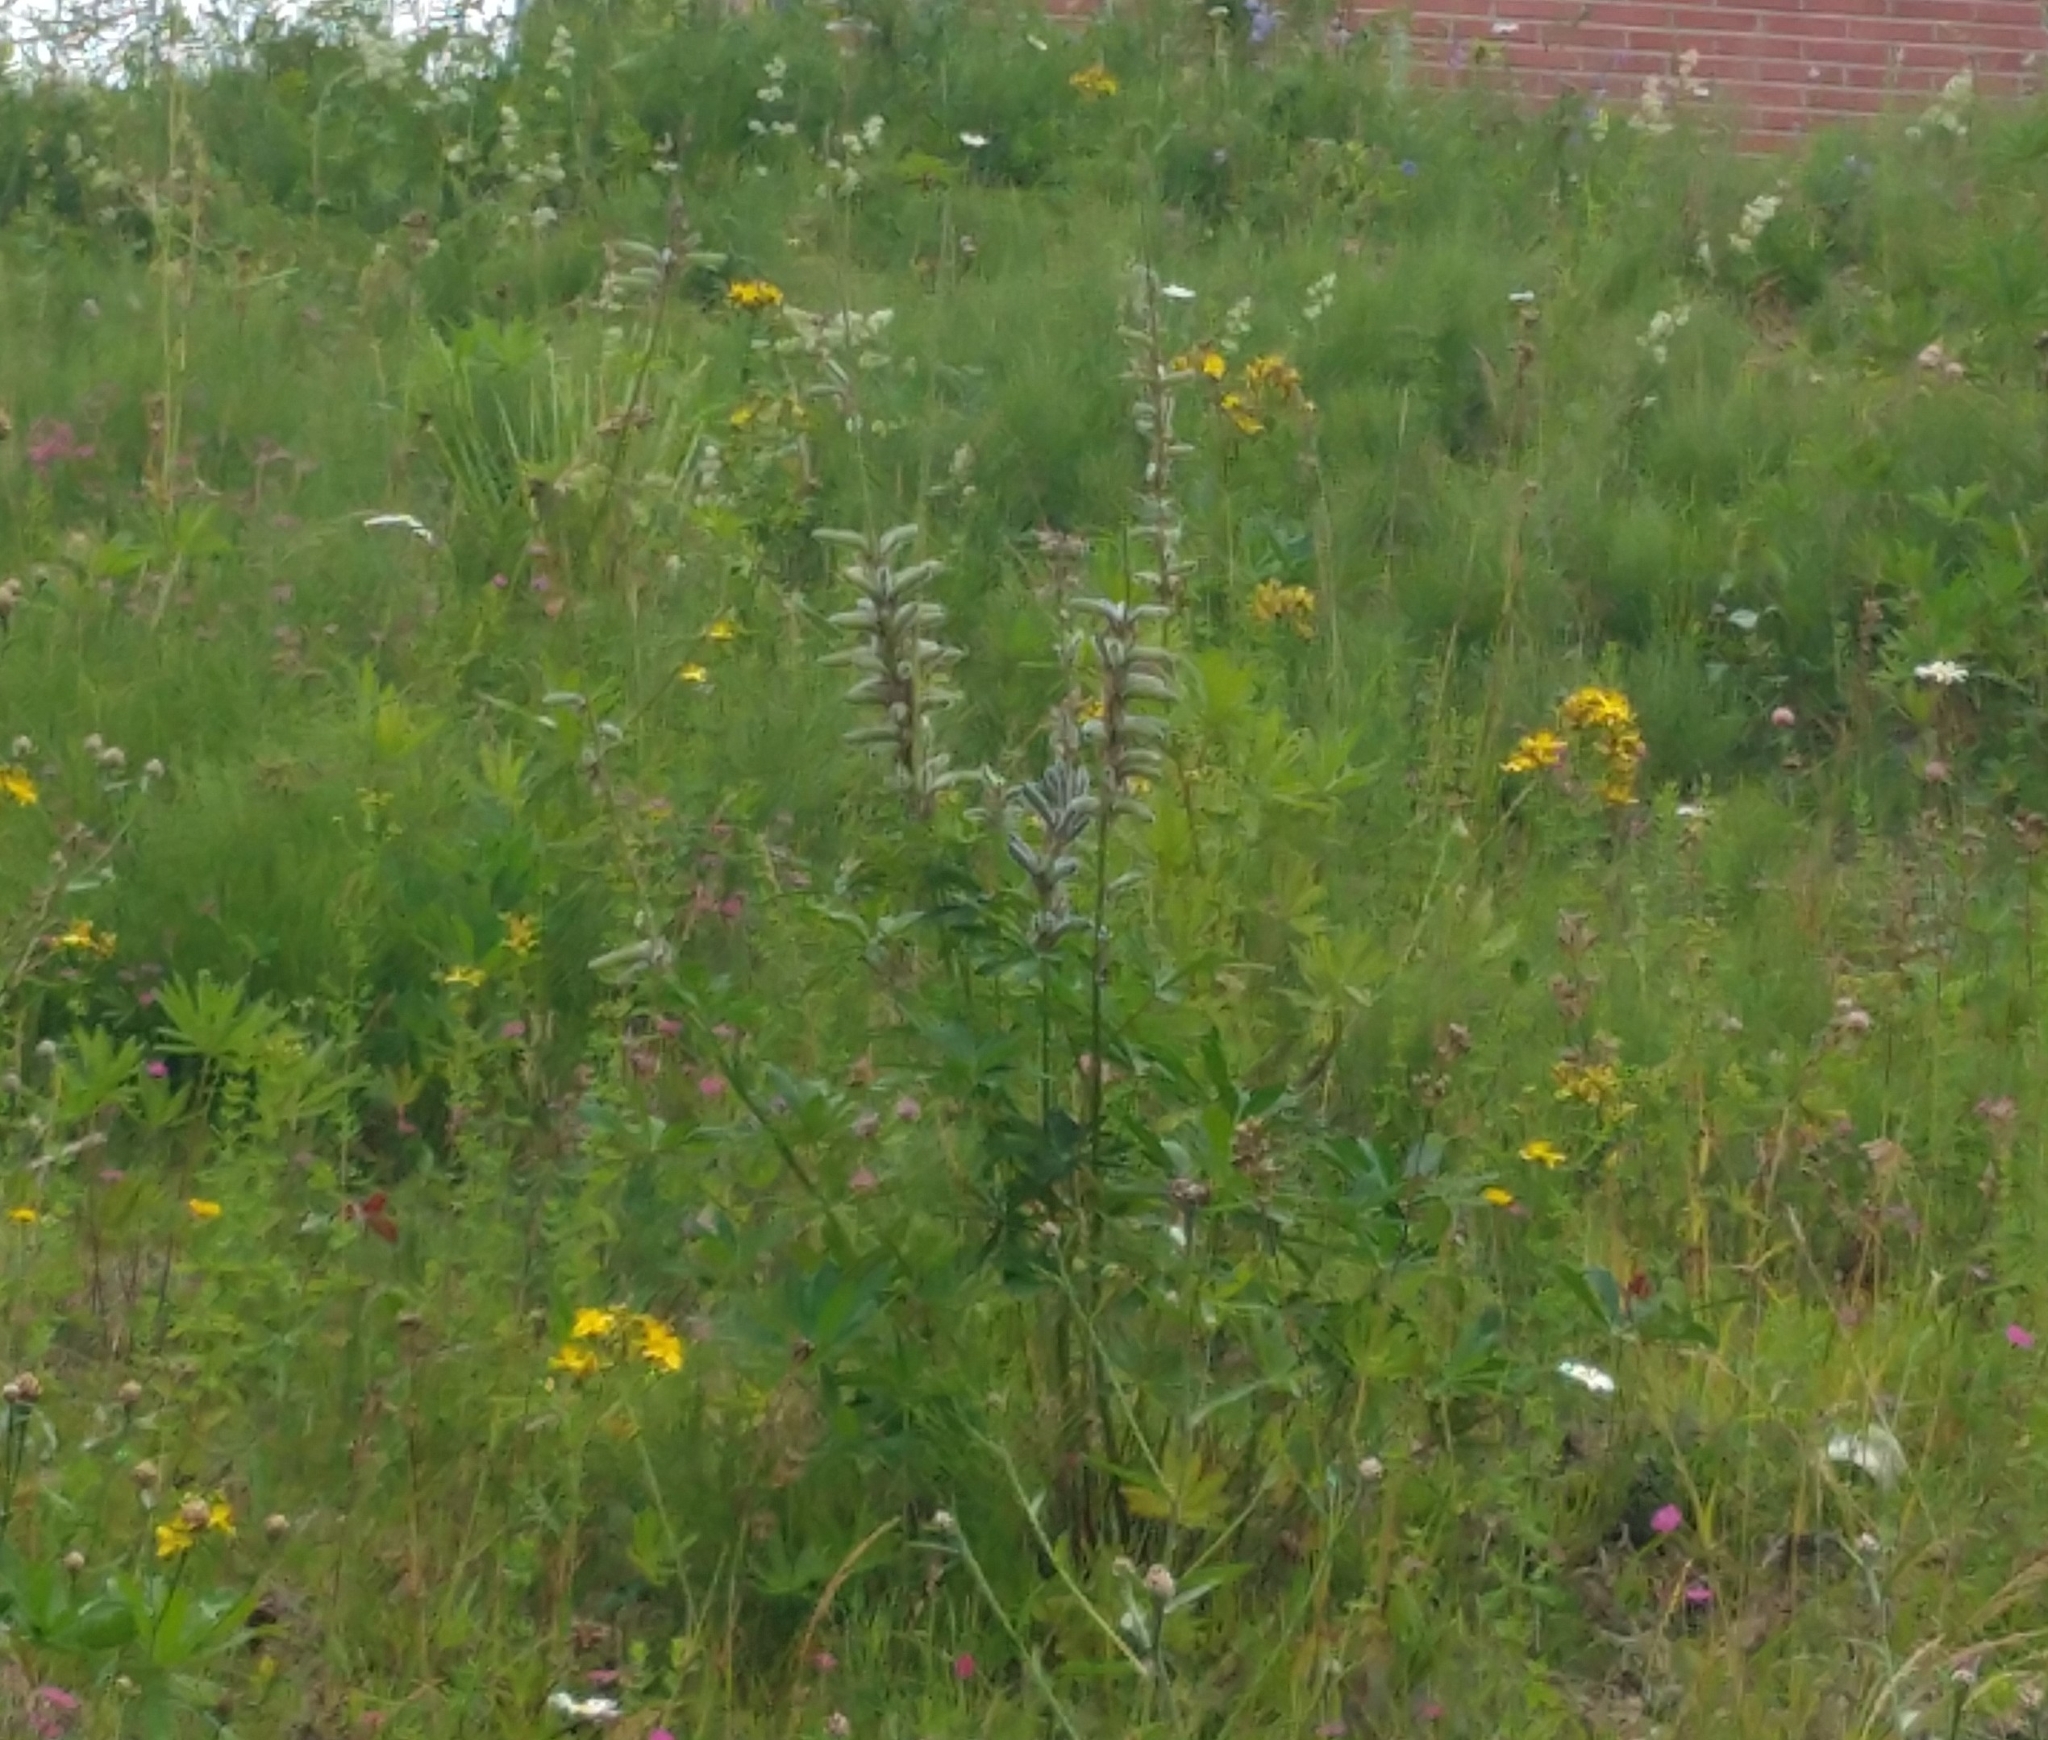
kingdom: Plantae
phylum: Tracheophyta
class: Magnoliopsida
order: Fabales
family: Fabaceae
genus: Lupinus
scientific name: Lupinus polyphyllus
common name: Garden lupin
